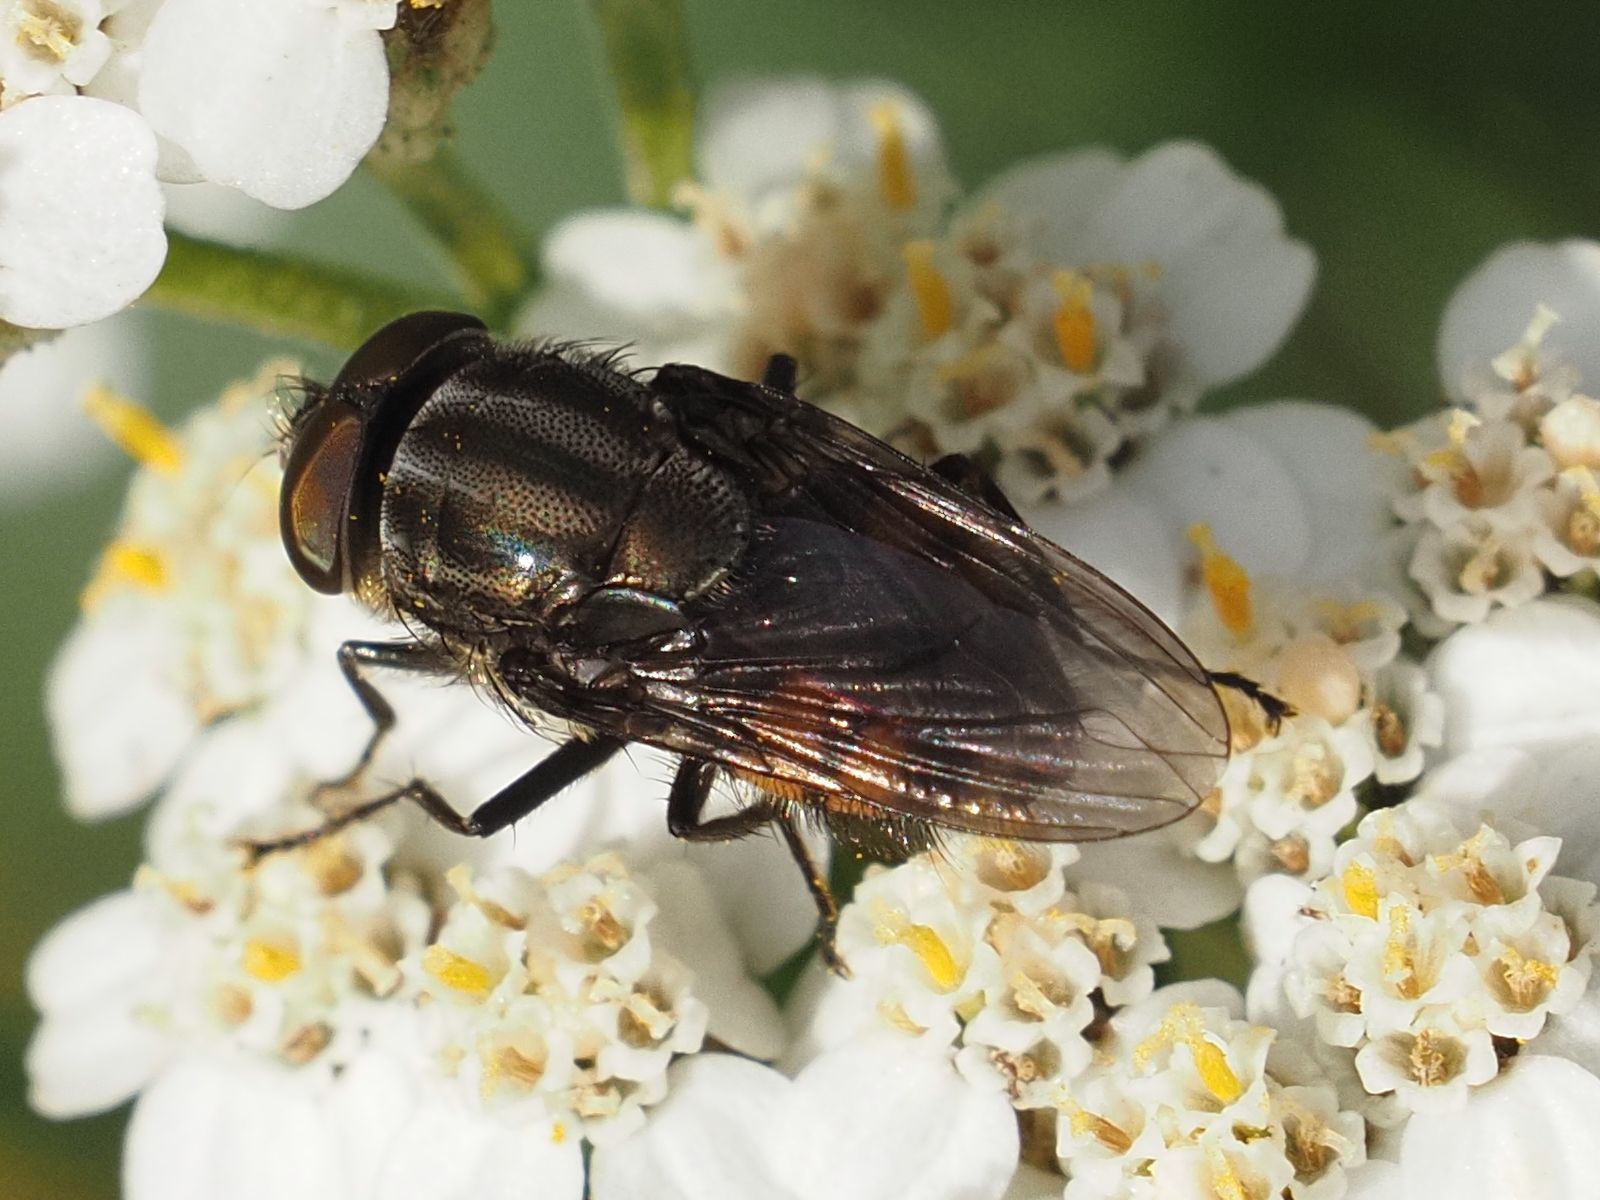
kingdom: Animalia
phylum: Arthropoda
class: Insecta
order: Diptera
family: Calliphoridae
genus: Stomorhina
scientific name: Stomorhina lunata
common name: Locust blowfly
